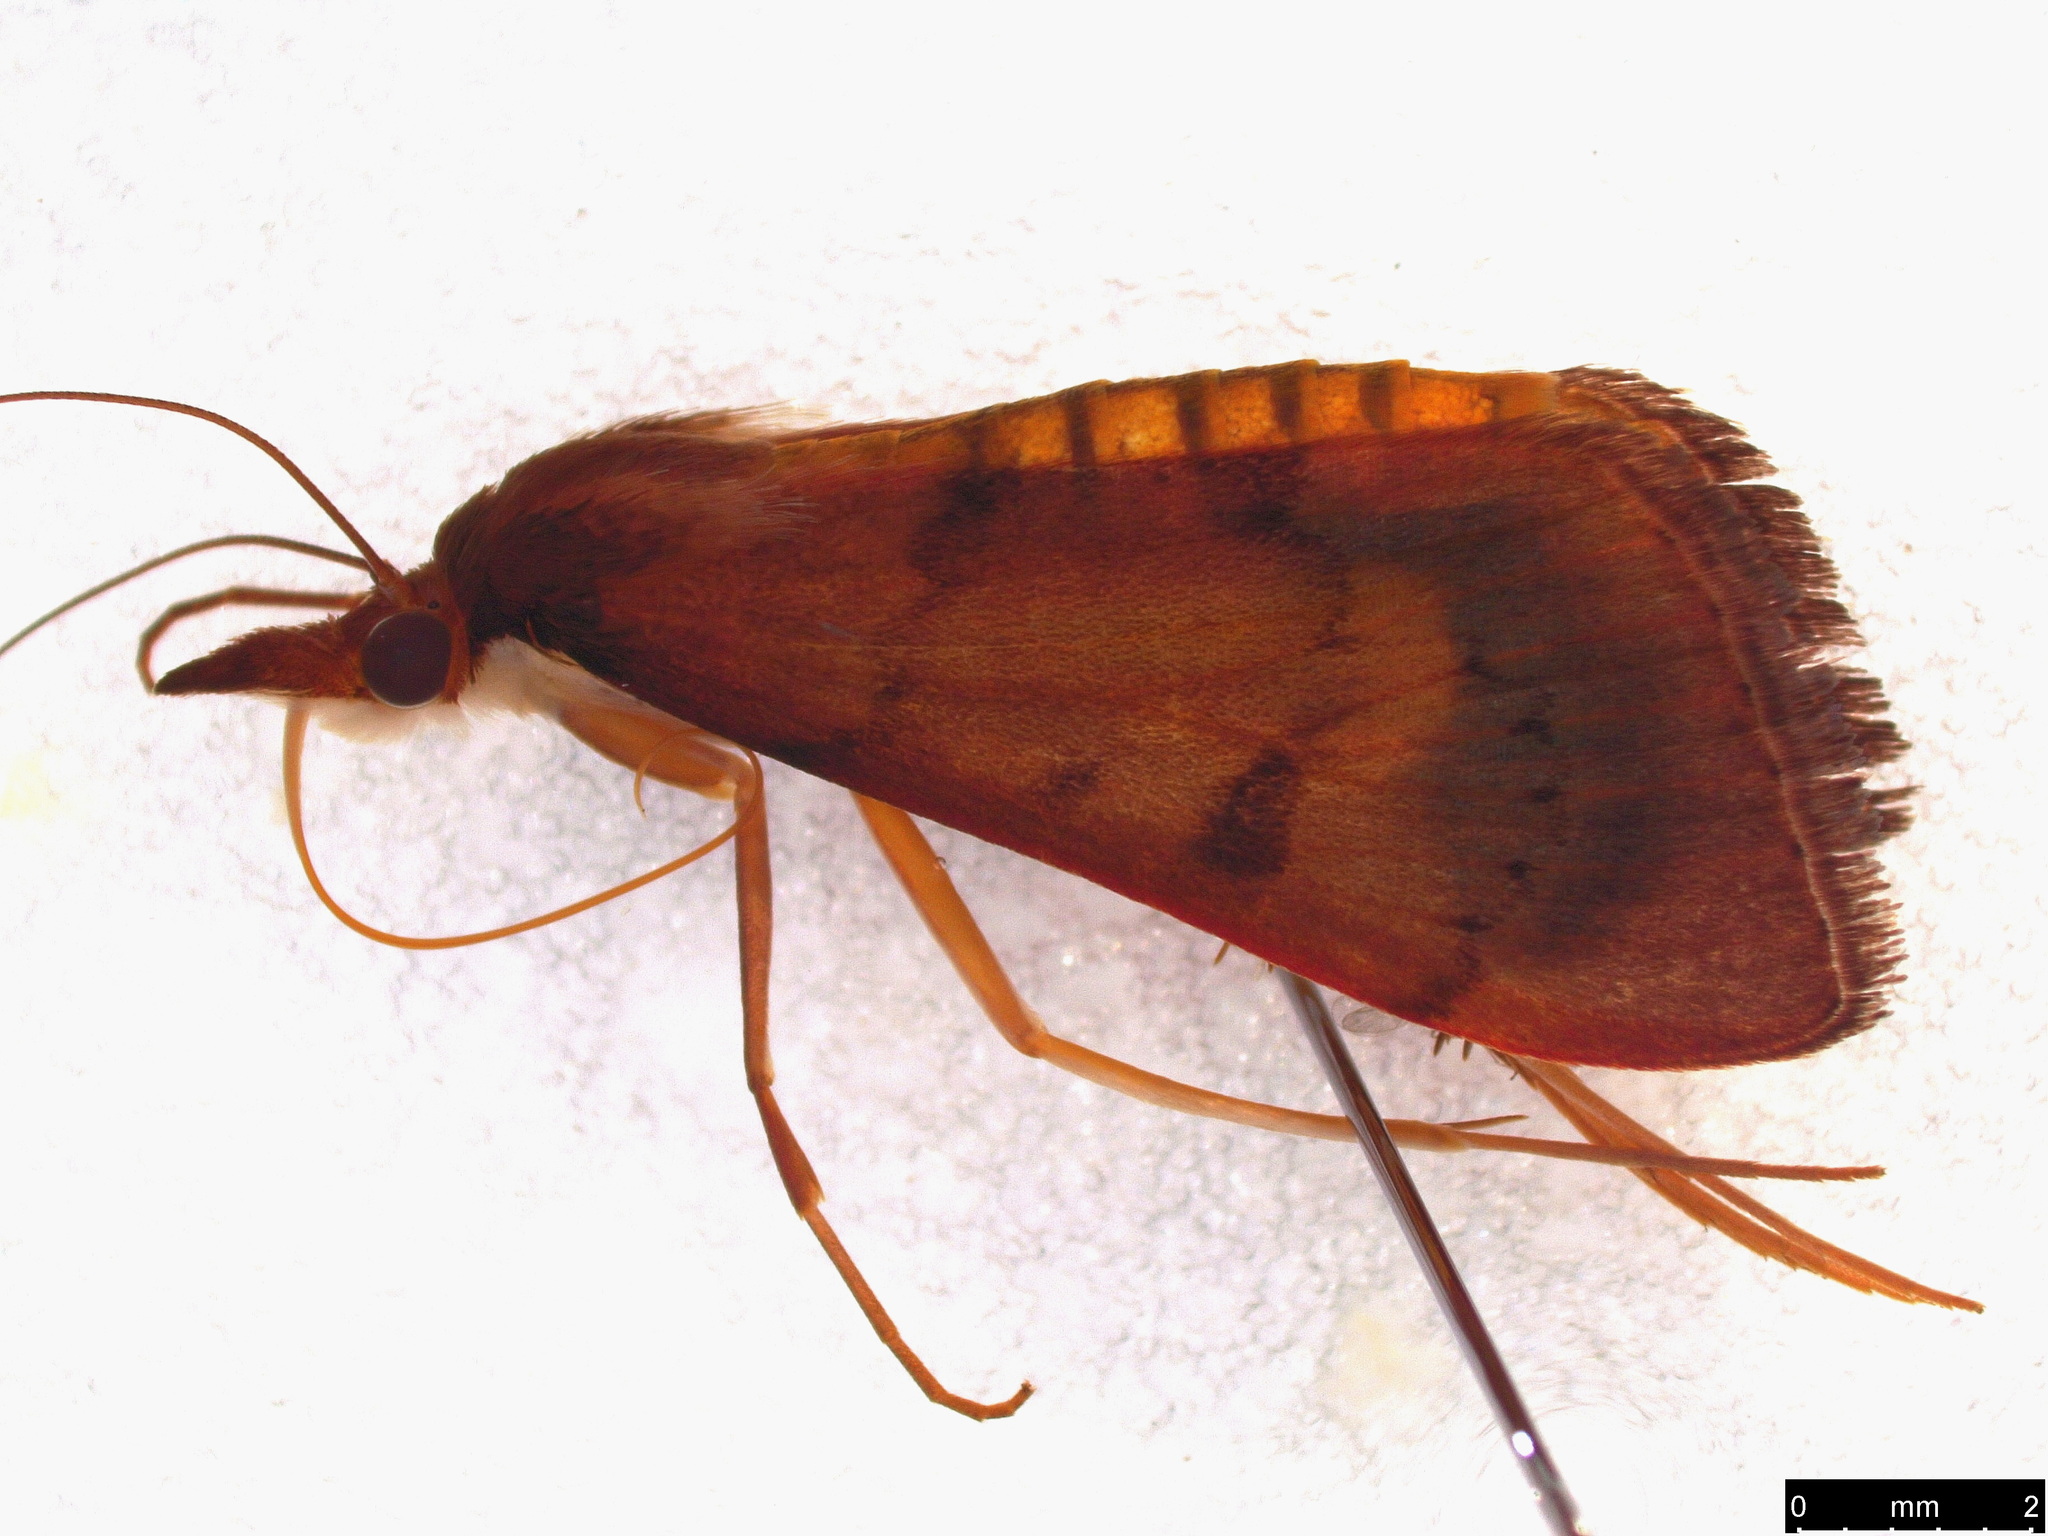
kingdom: Animalia
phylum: Arthropoda
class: Insecta
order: Lepidoptera
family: Crambidae
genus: Uresiphita
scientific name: Uresiphita ornithopteralis
